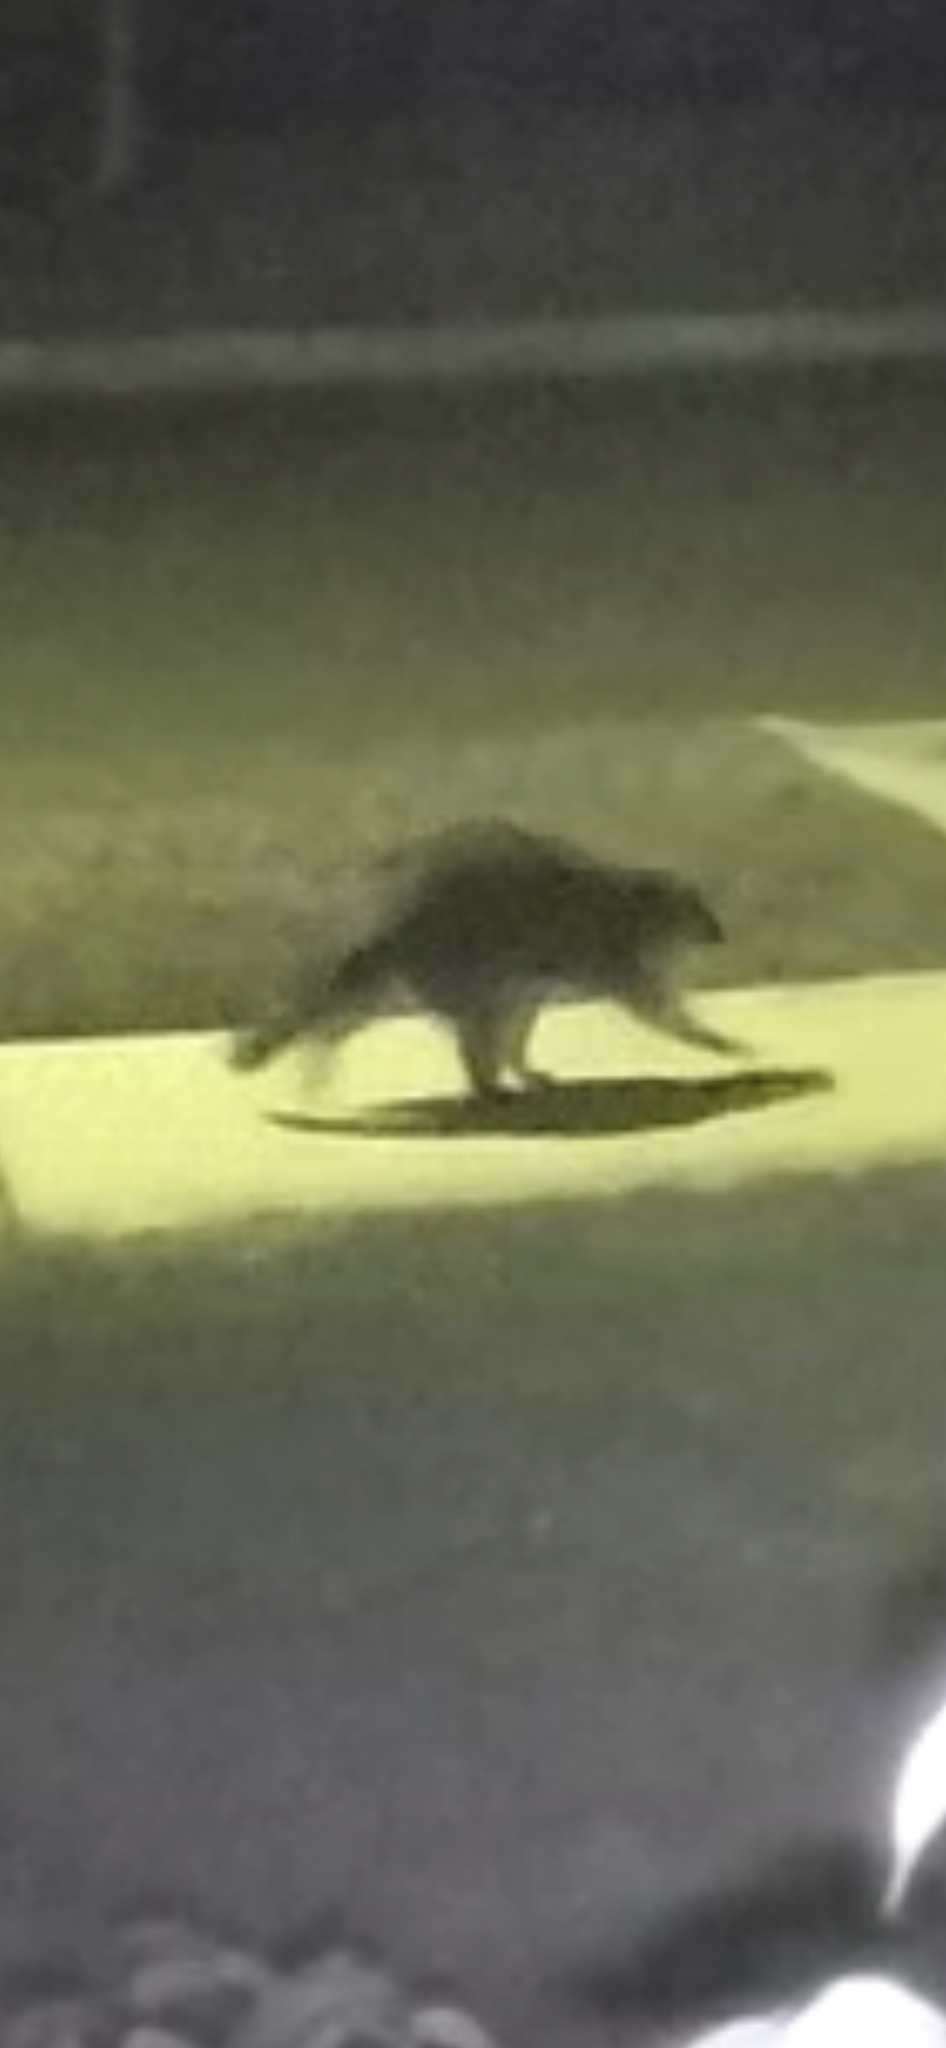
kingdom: Animalia
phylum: Chordata
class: Mammalia
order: Carnivora
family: Procyonidae
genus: Procyon
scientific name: Procyon lotor
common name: Raccoon
